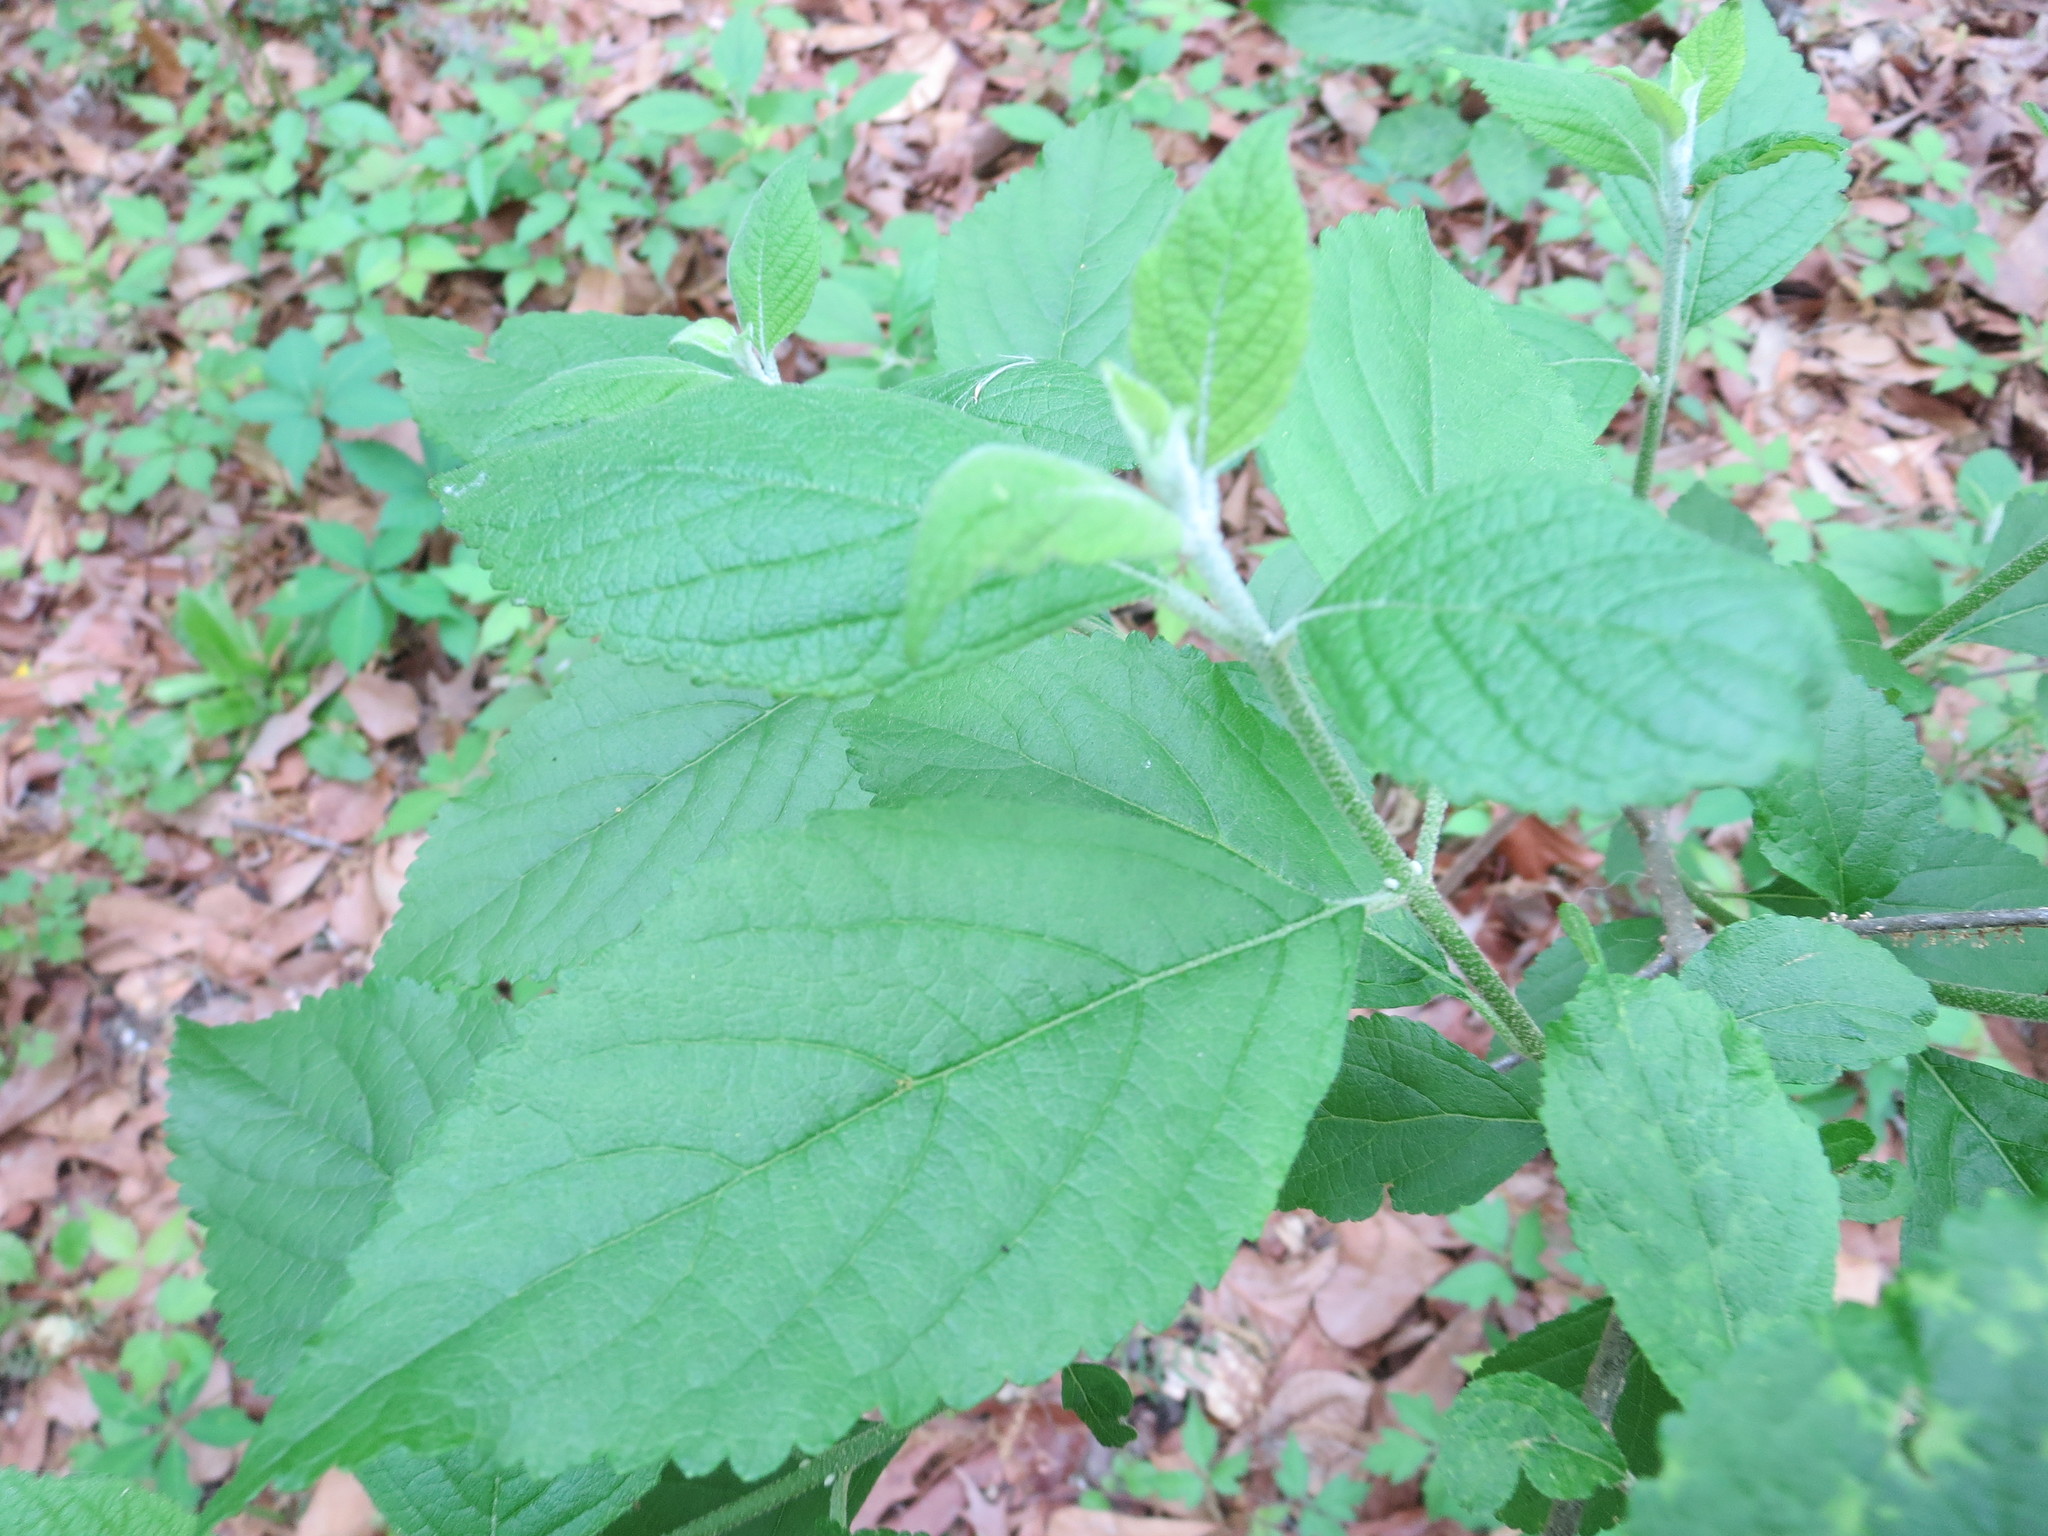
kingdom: Plantae
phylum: Tracheophyta
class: Magnoliopsida
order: Lamiales
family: Lamiaceae
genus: Callicarpa
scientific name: Callicarpa americana
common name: American beautyberry
